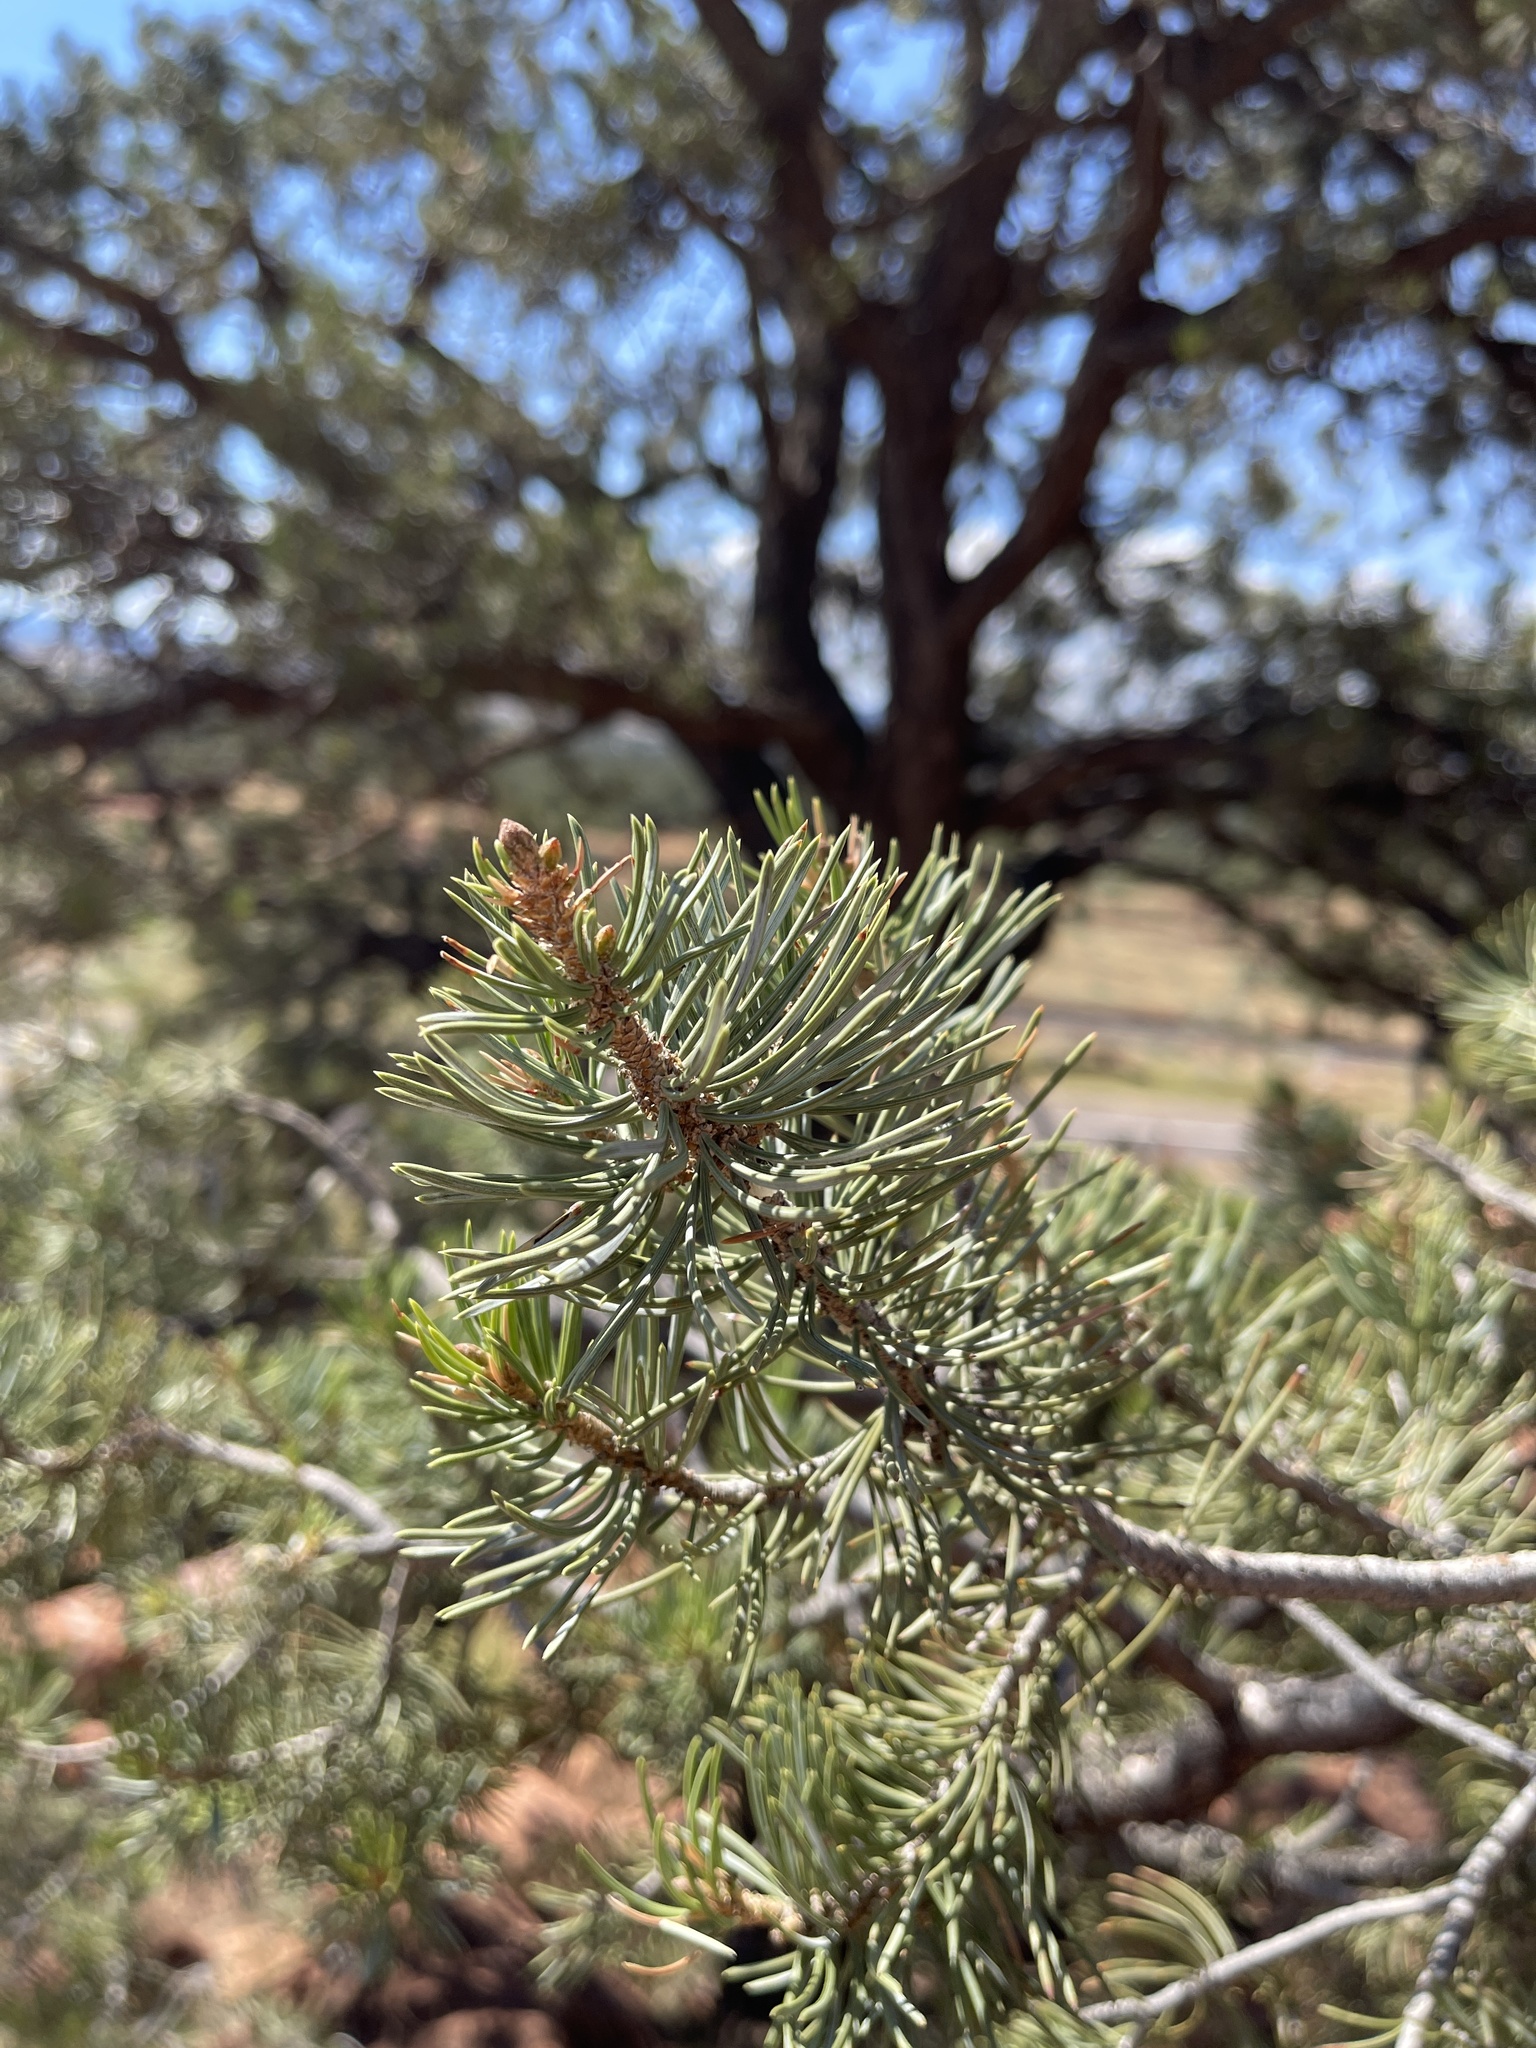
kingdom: Plantae
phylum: Tracheophyta
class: Pinopsida
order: Pinales
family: Pinaceae
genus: Pinus
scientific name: Pinus edulis
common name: Colorado pinyon
